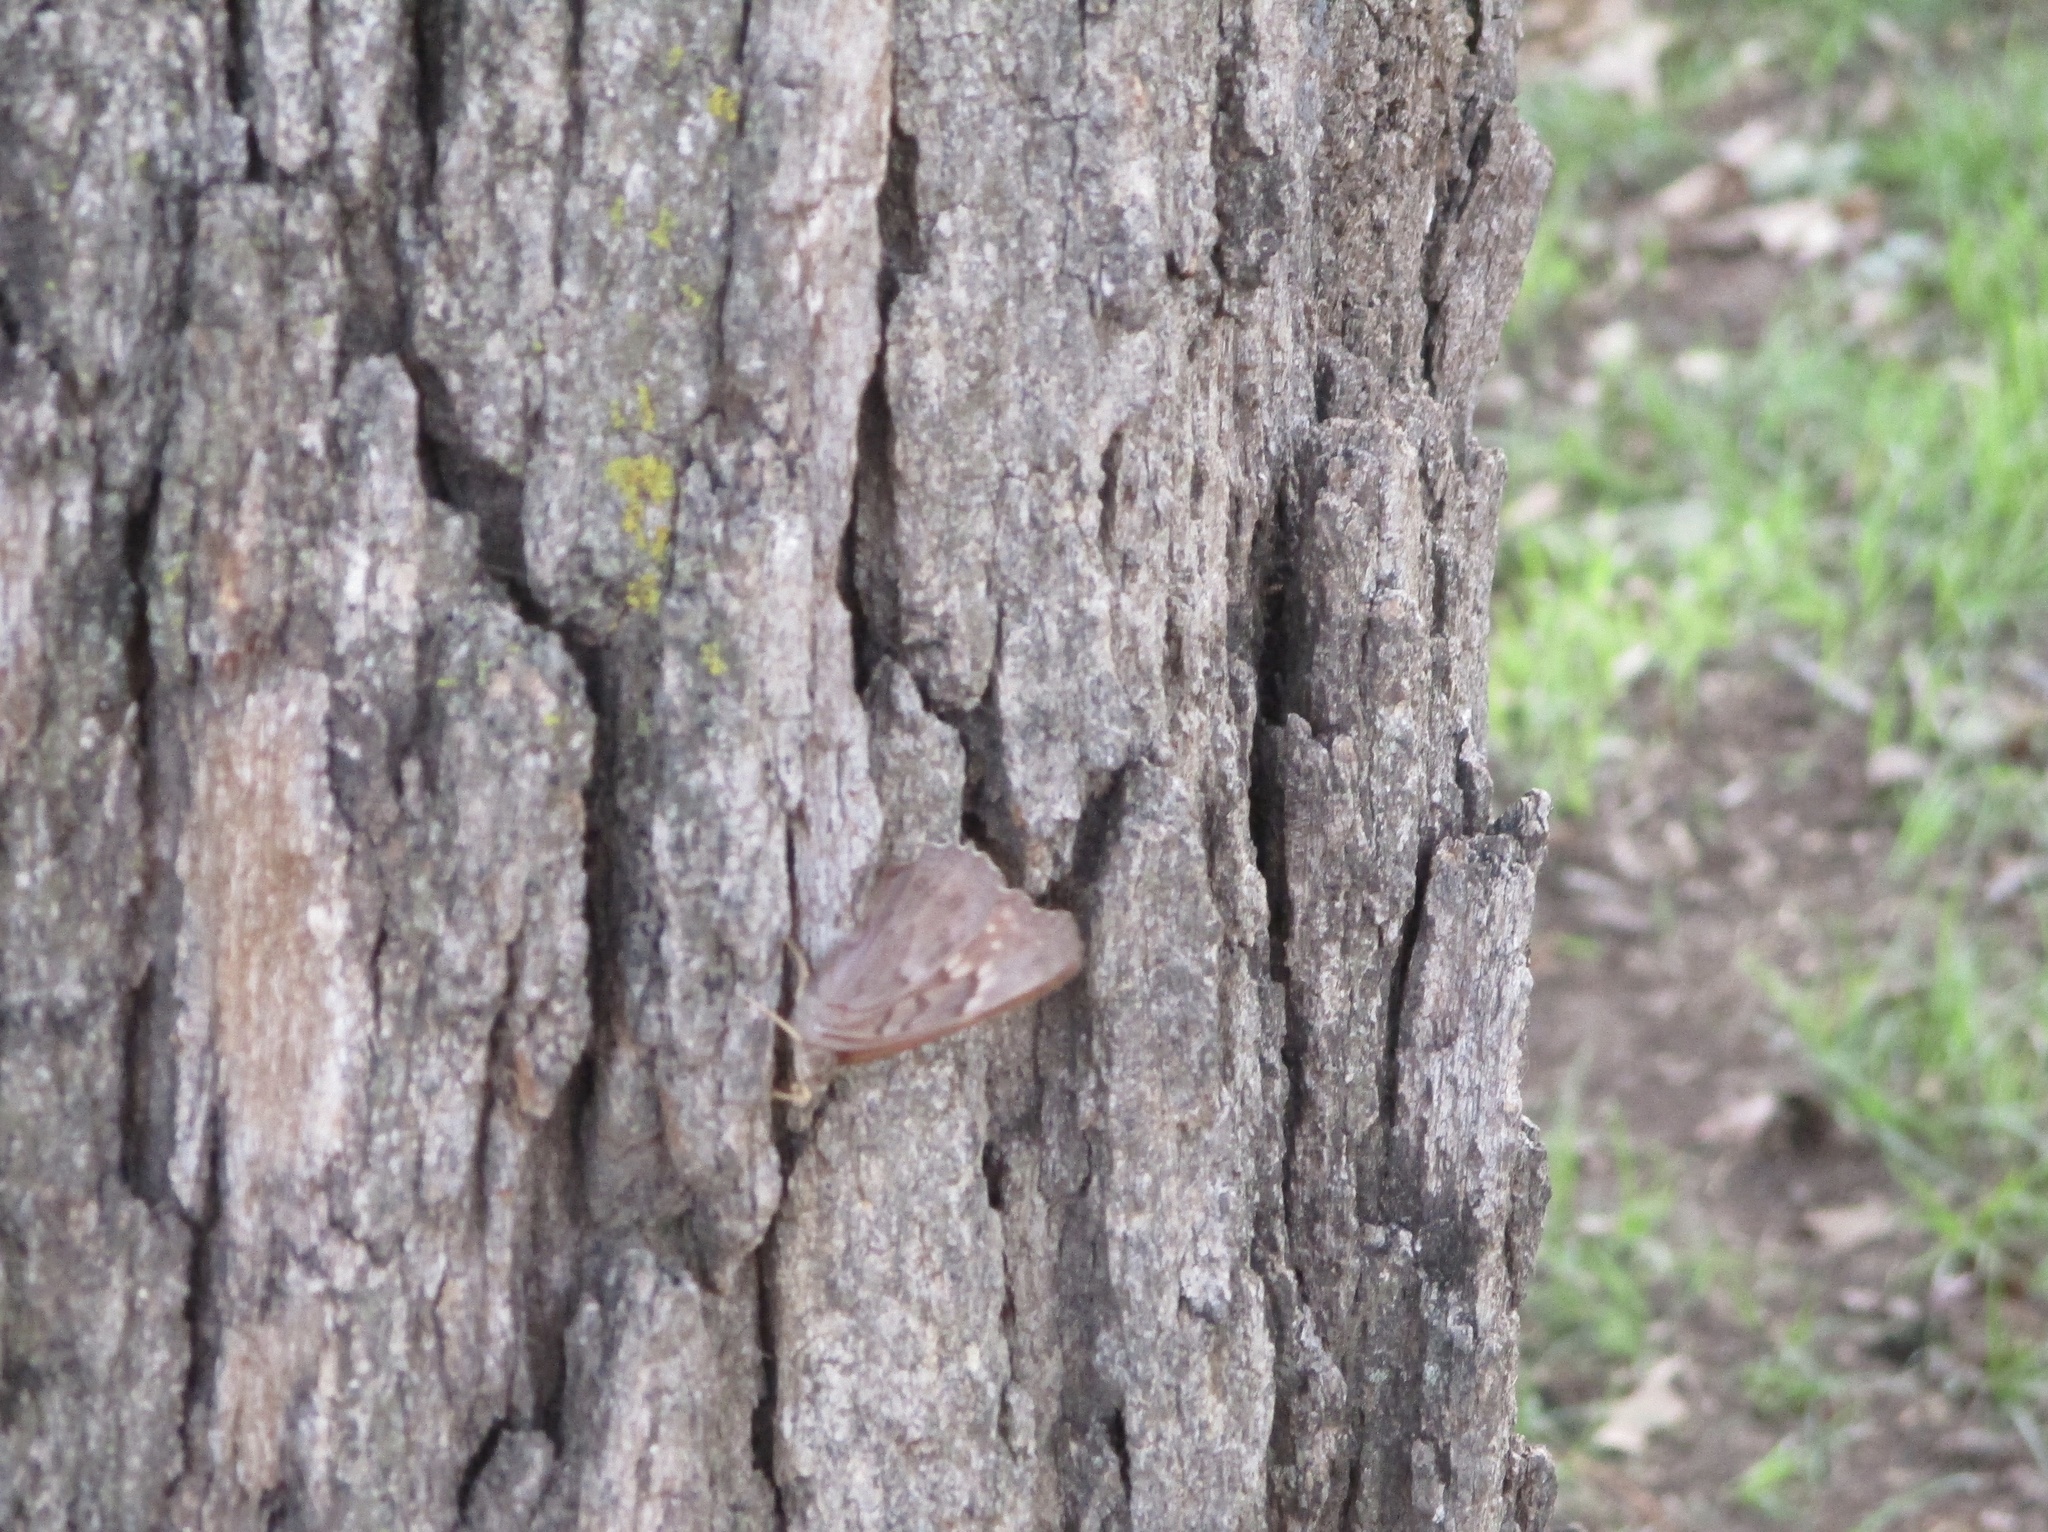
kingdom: Animalia
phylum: Arthropoda
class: Insecta
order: Lepidoptera
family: Nymphalidae
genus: Asterocampa
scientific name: Asterocampa clyton
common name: Tawny emperor
